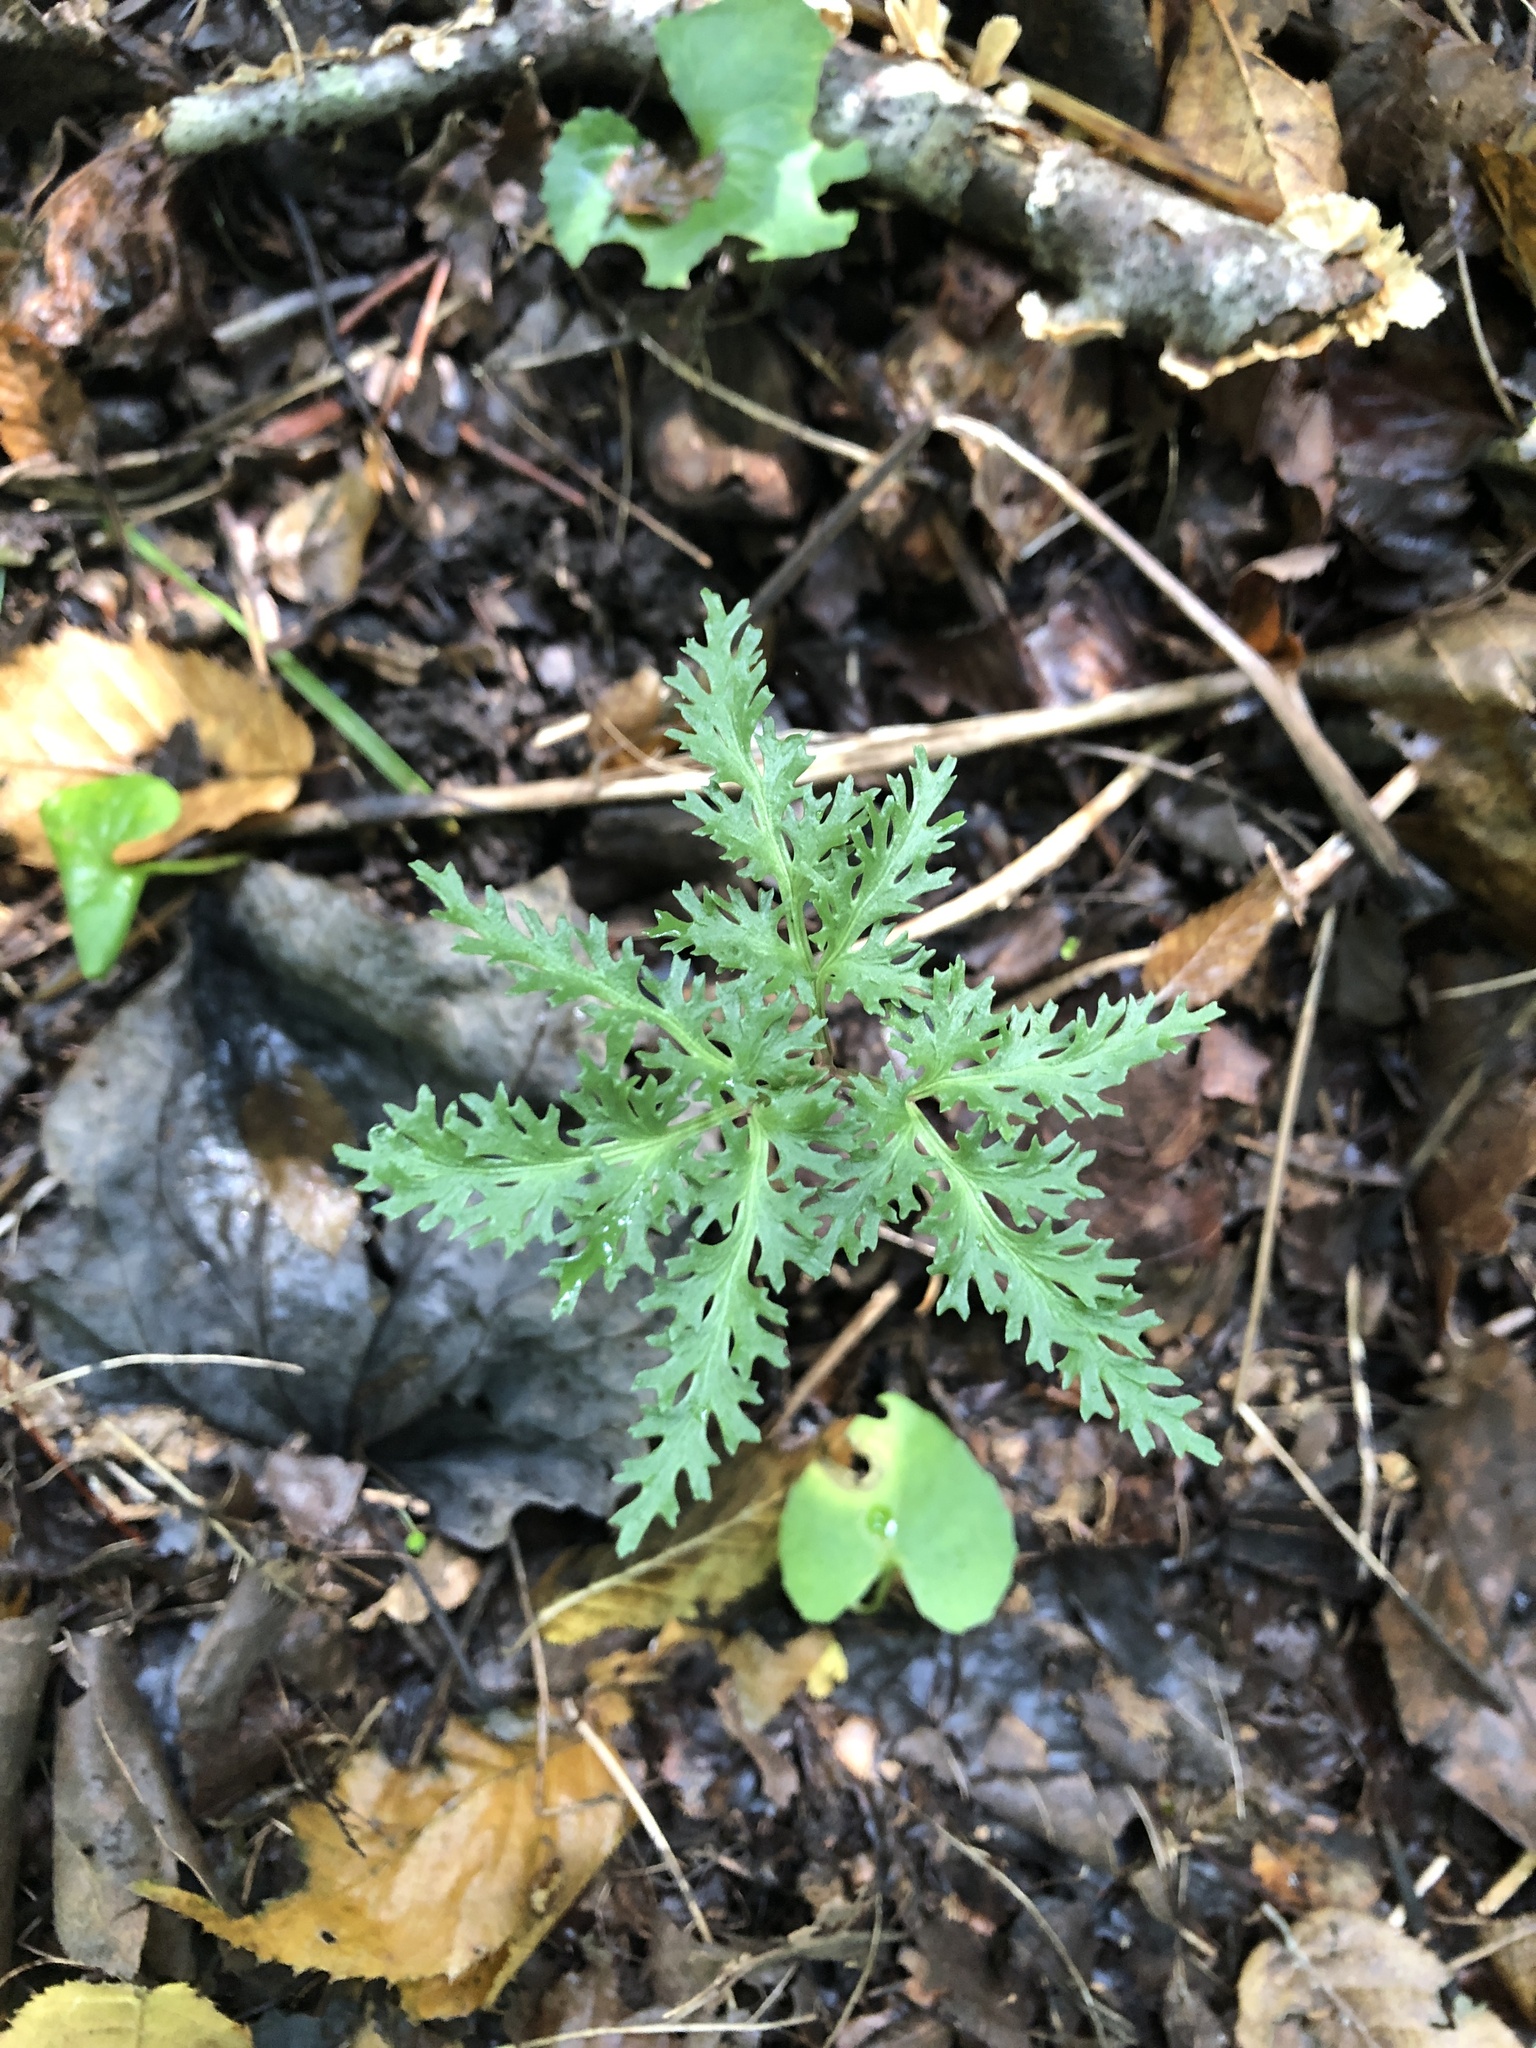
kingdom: Plantae
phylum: Tracheophyta
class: Polypodiopsida
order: Ophioglossales
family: Ophioglossaceae
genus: Sceptridium
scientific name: Sceptridium dissectum
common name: Cut-leaved grapefern
